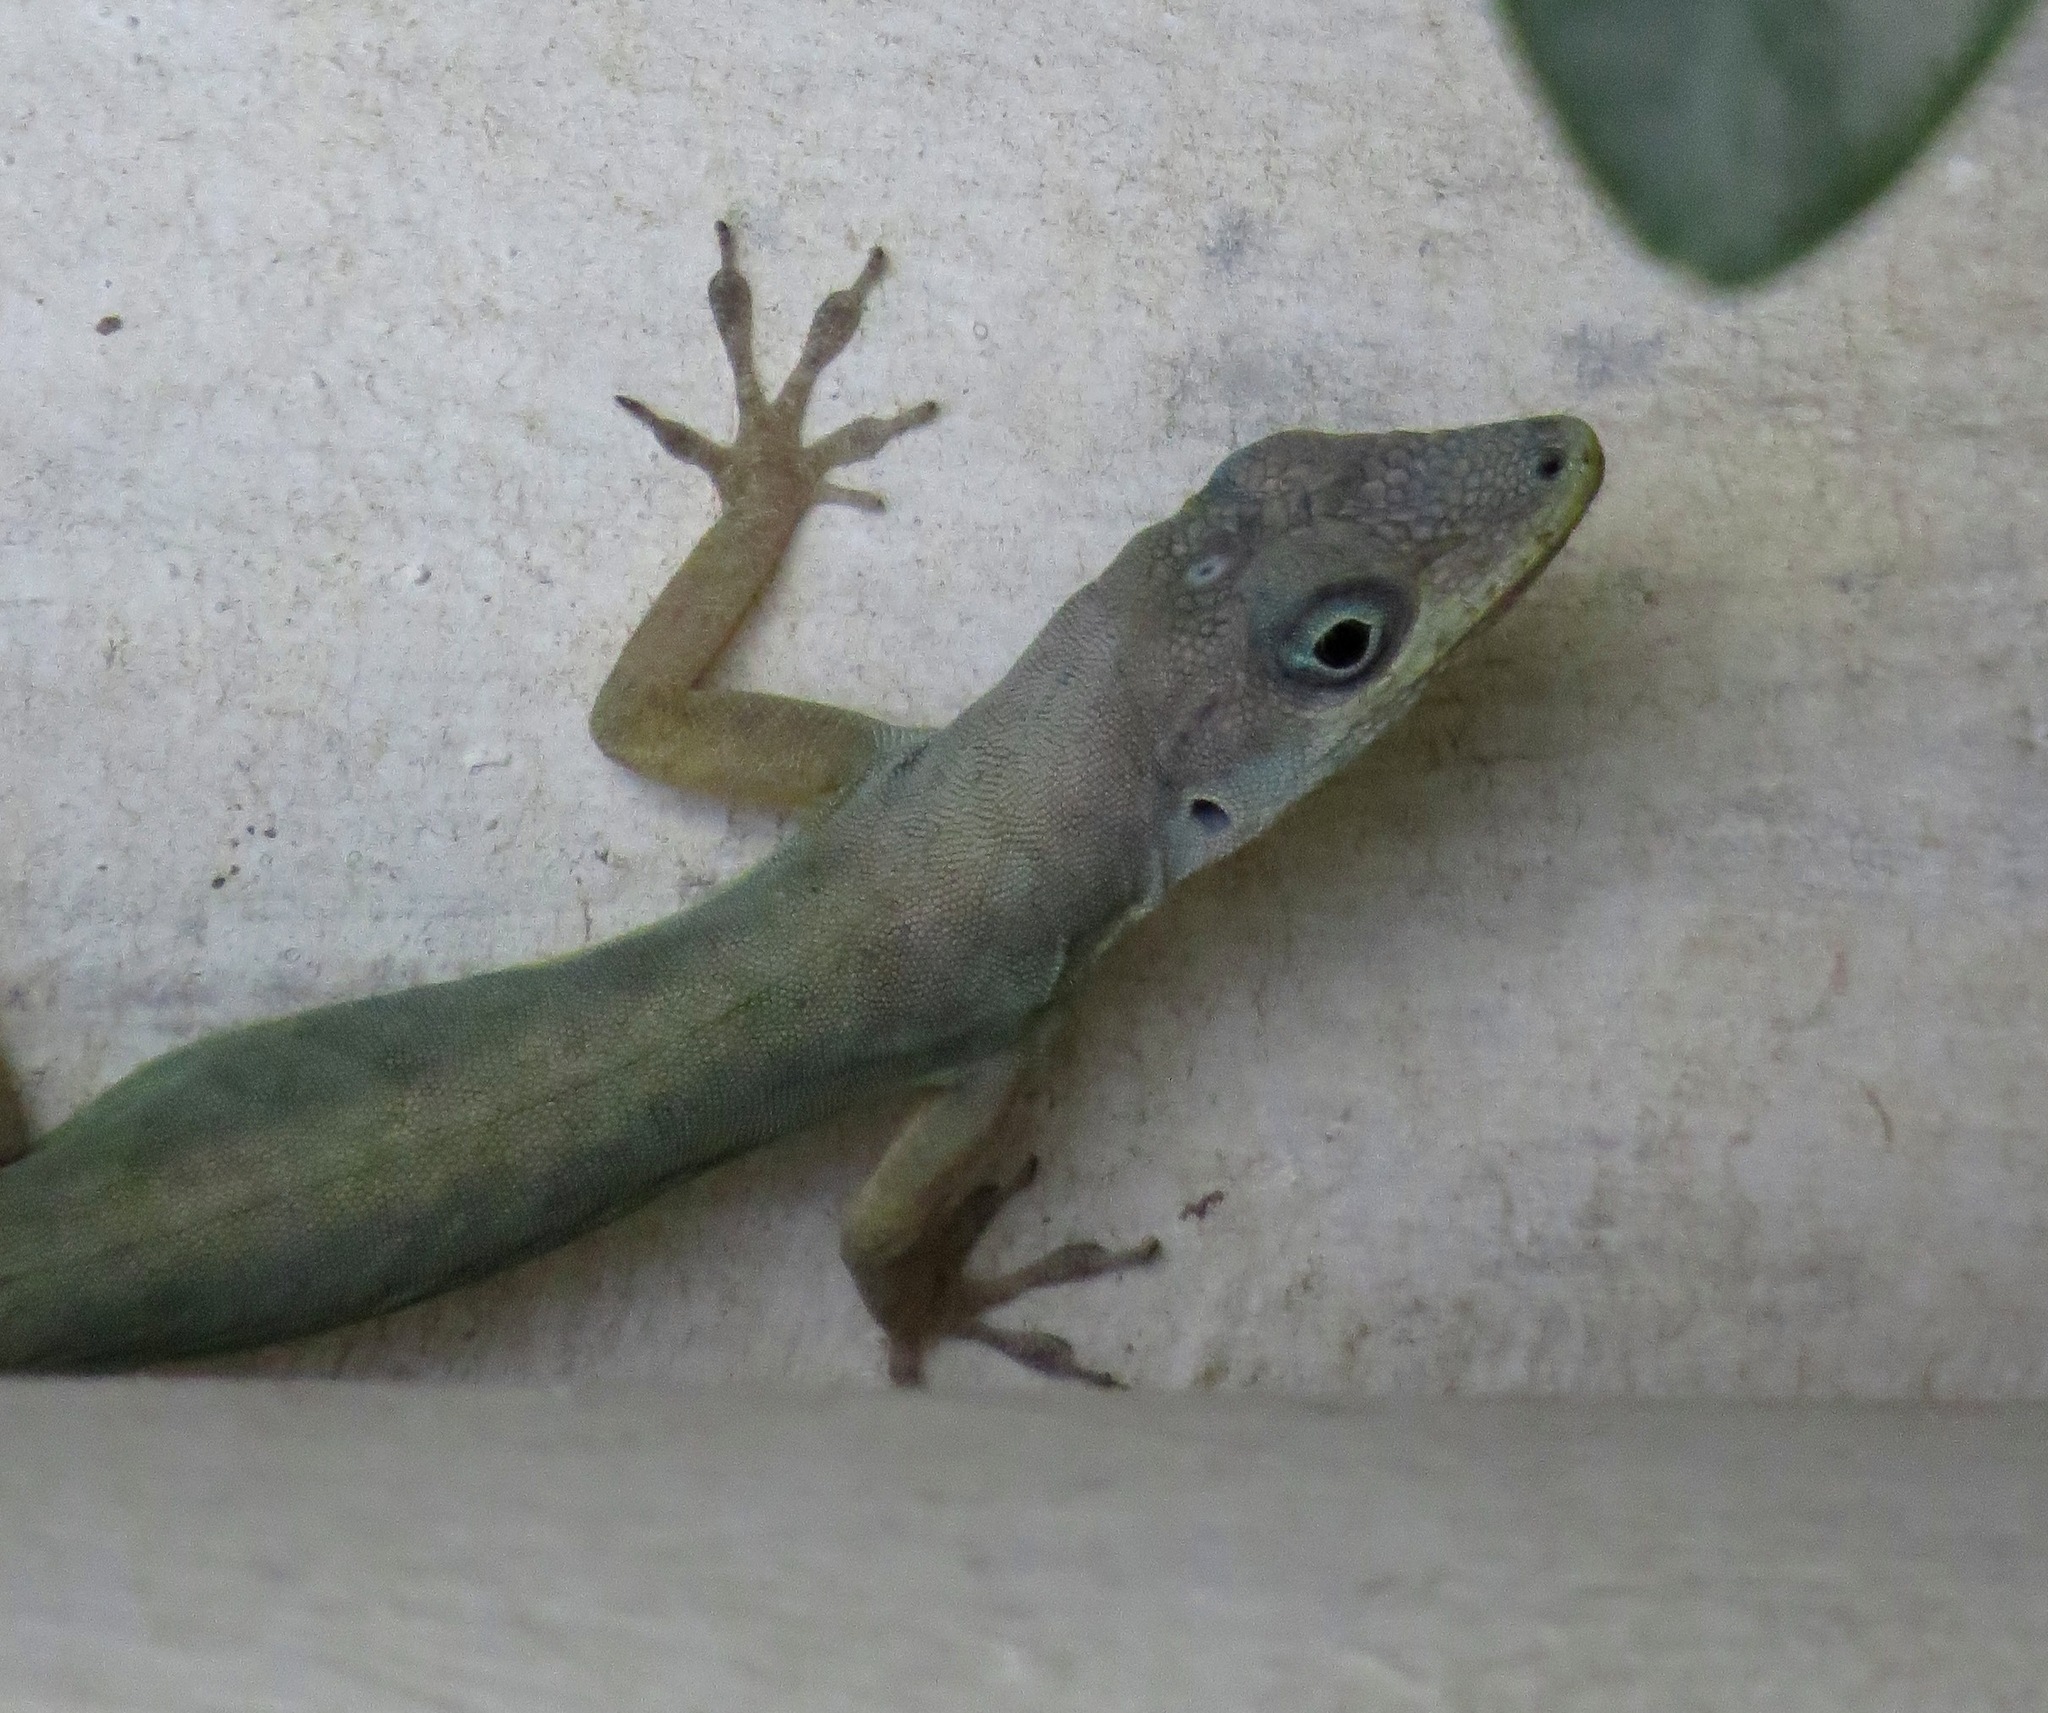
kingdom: Animalia
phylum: Chordata
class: Squamata
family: Dactyloidae
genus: Anolis
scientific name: Anolis aeneus
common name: Bronze anole
